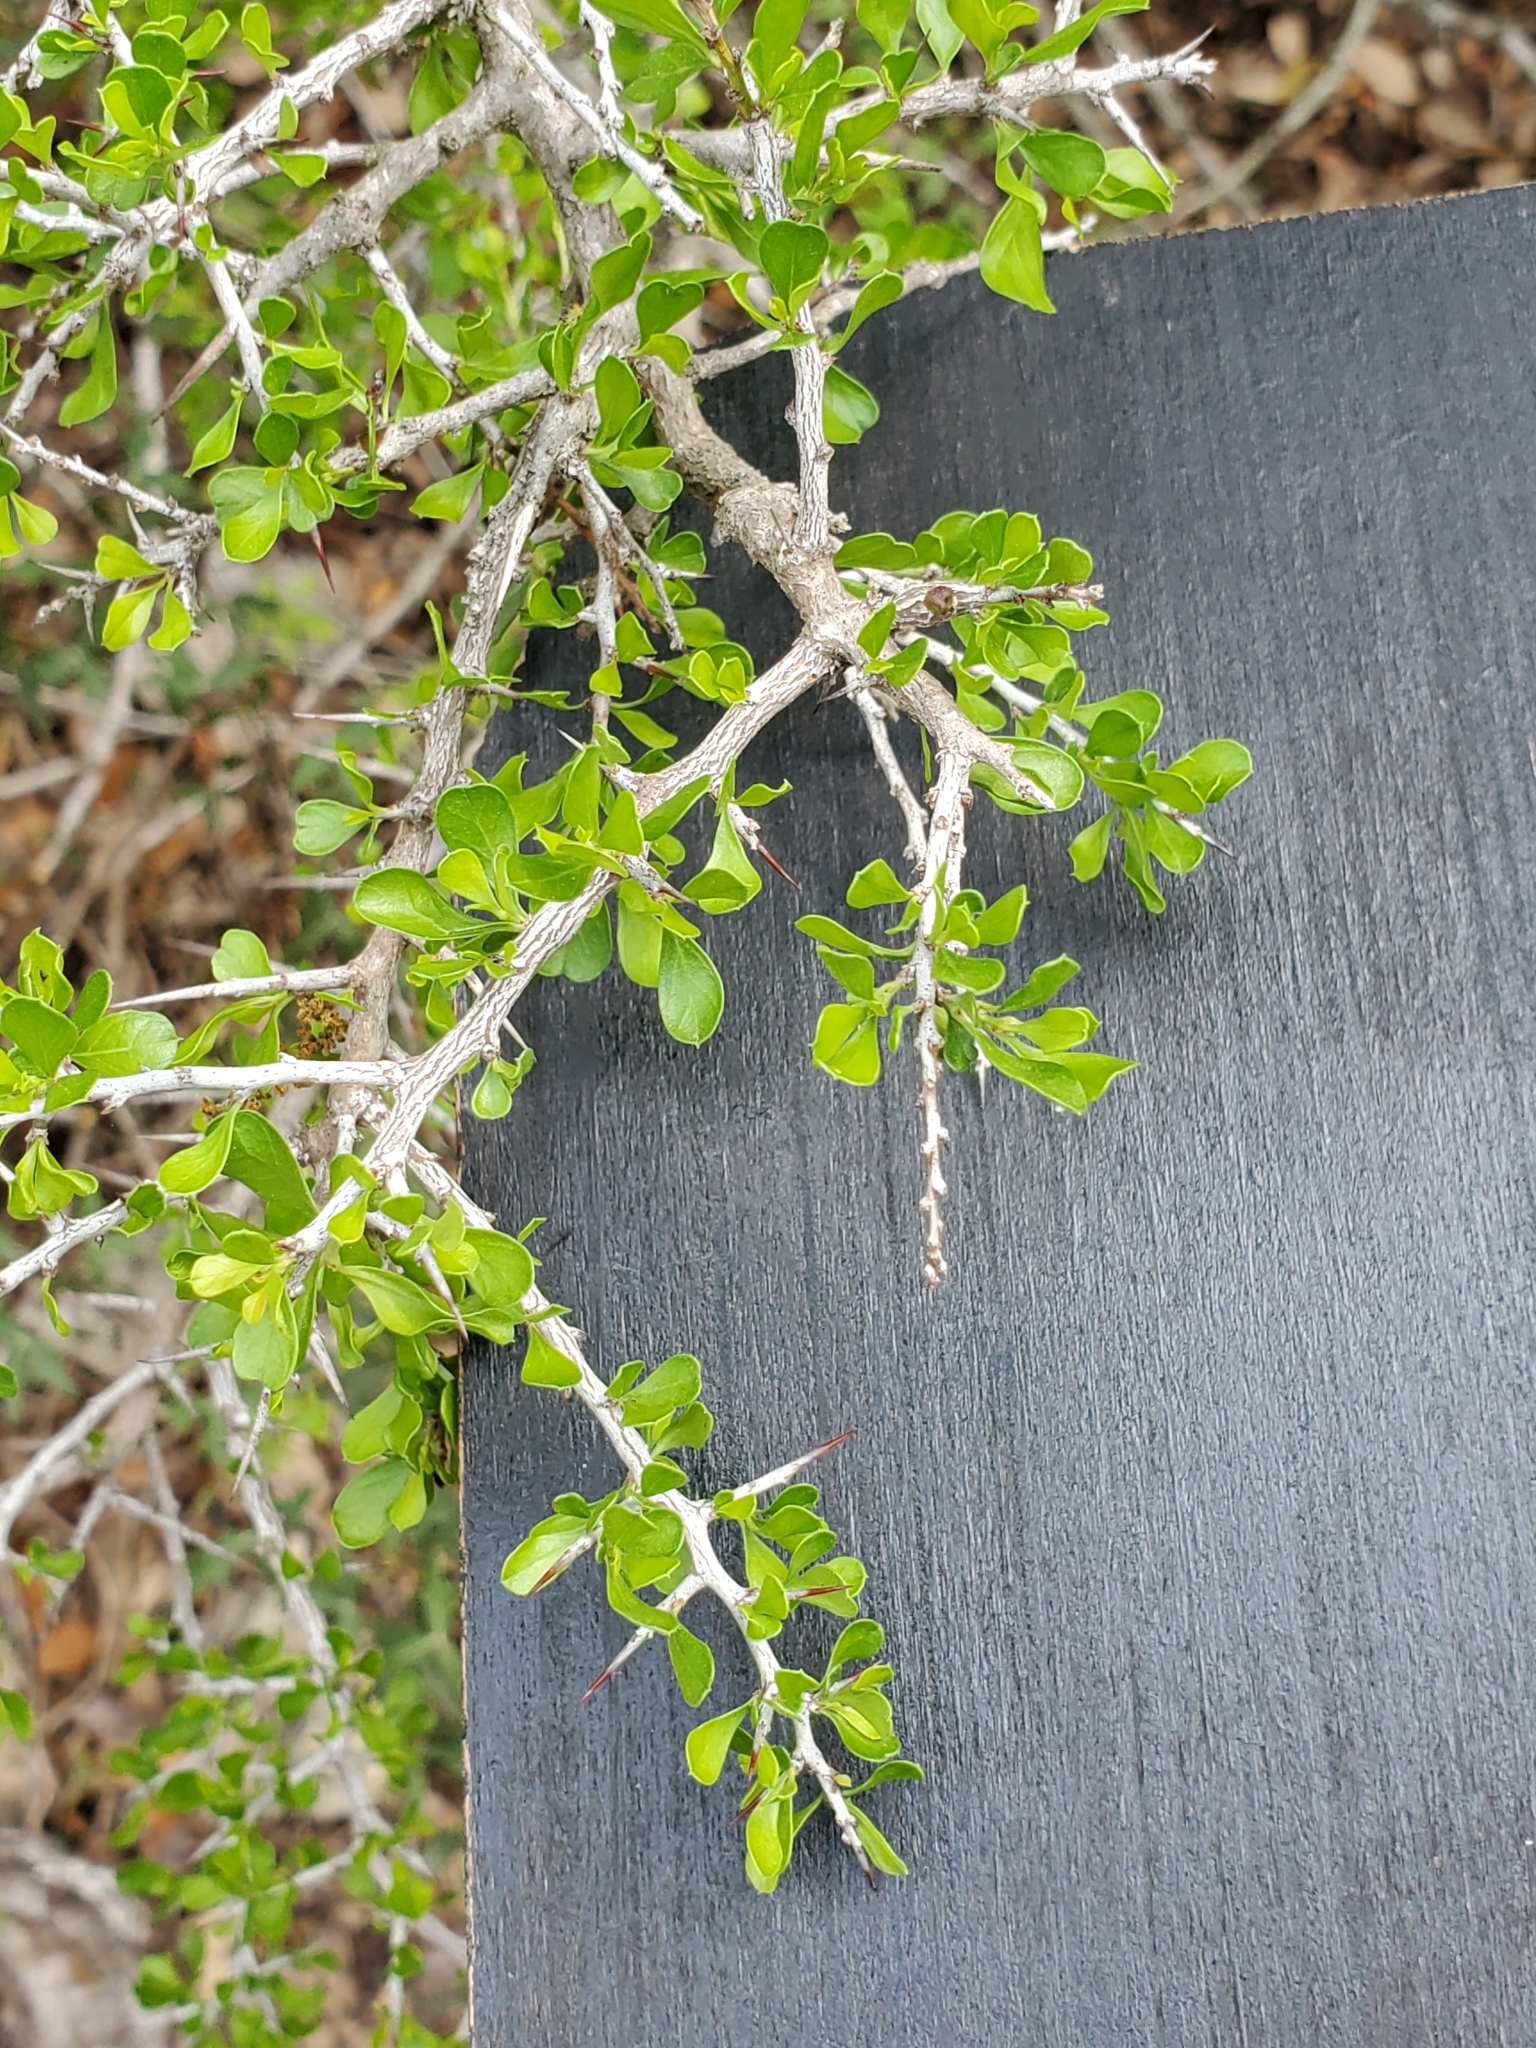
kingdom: Plantae
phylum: Tracheophyta
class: Magnoliopsida
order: Rosales
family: Rhamnaceae
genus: Condalia
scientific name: Condalia viridis
